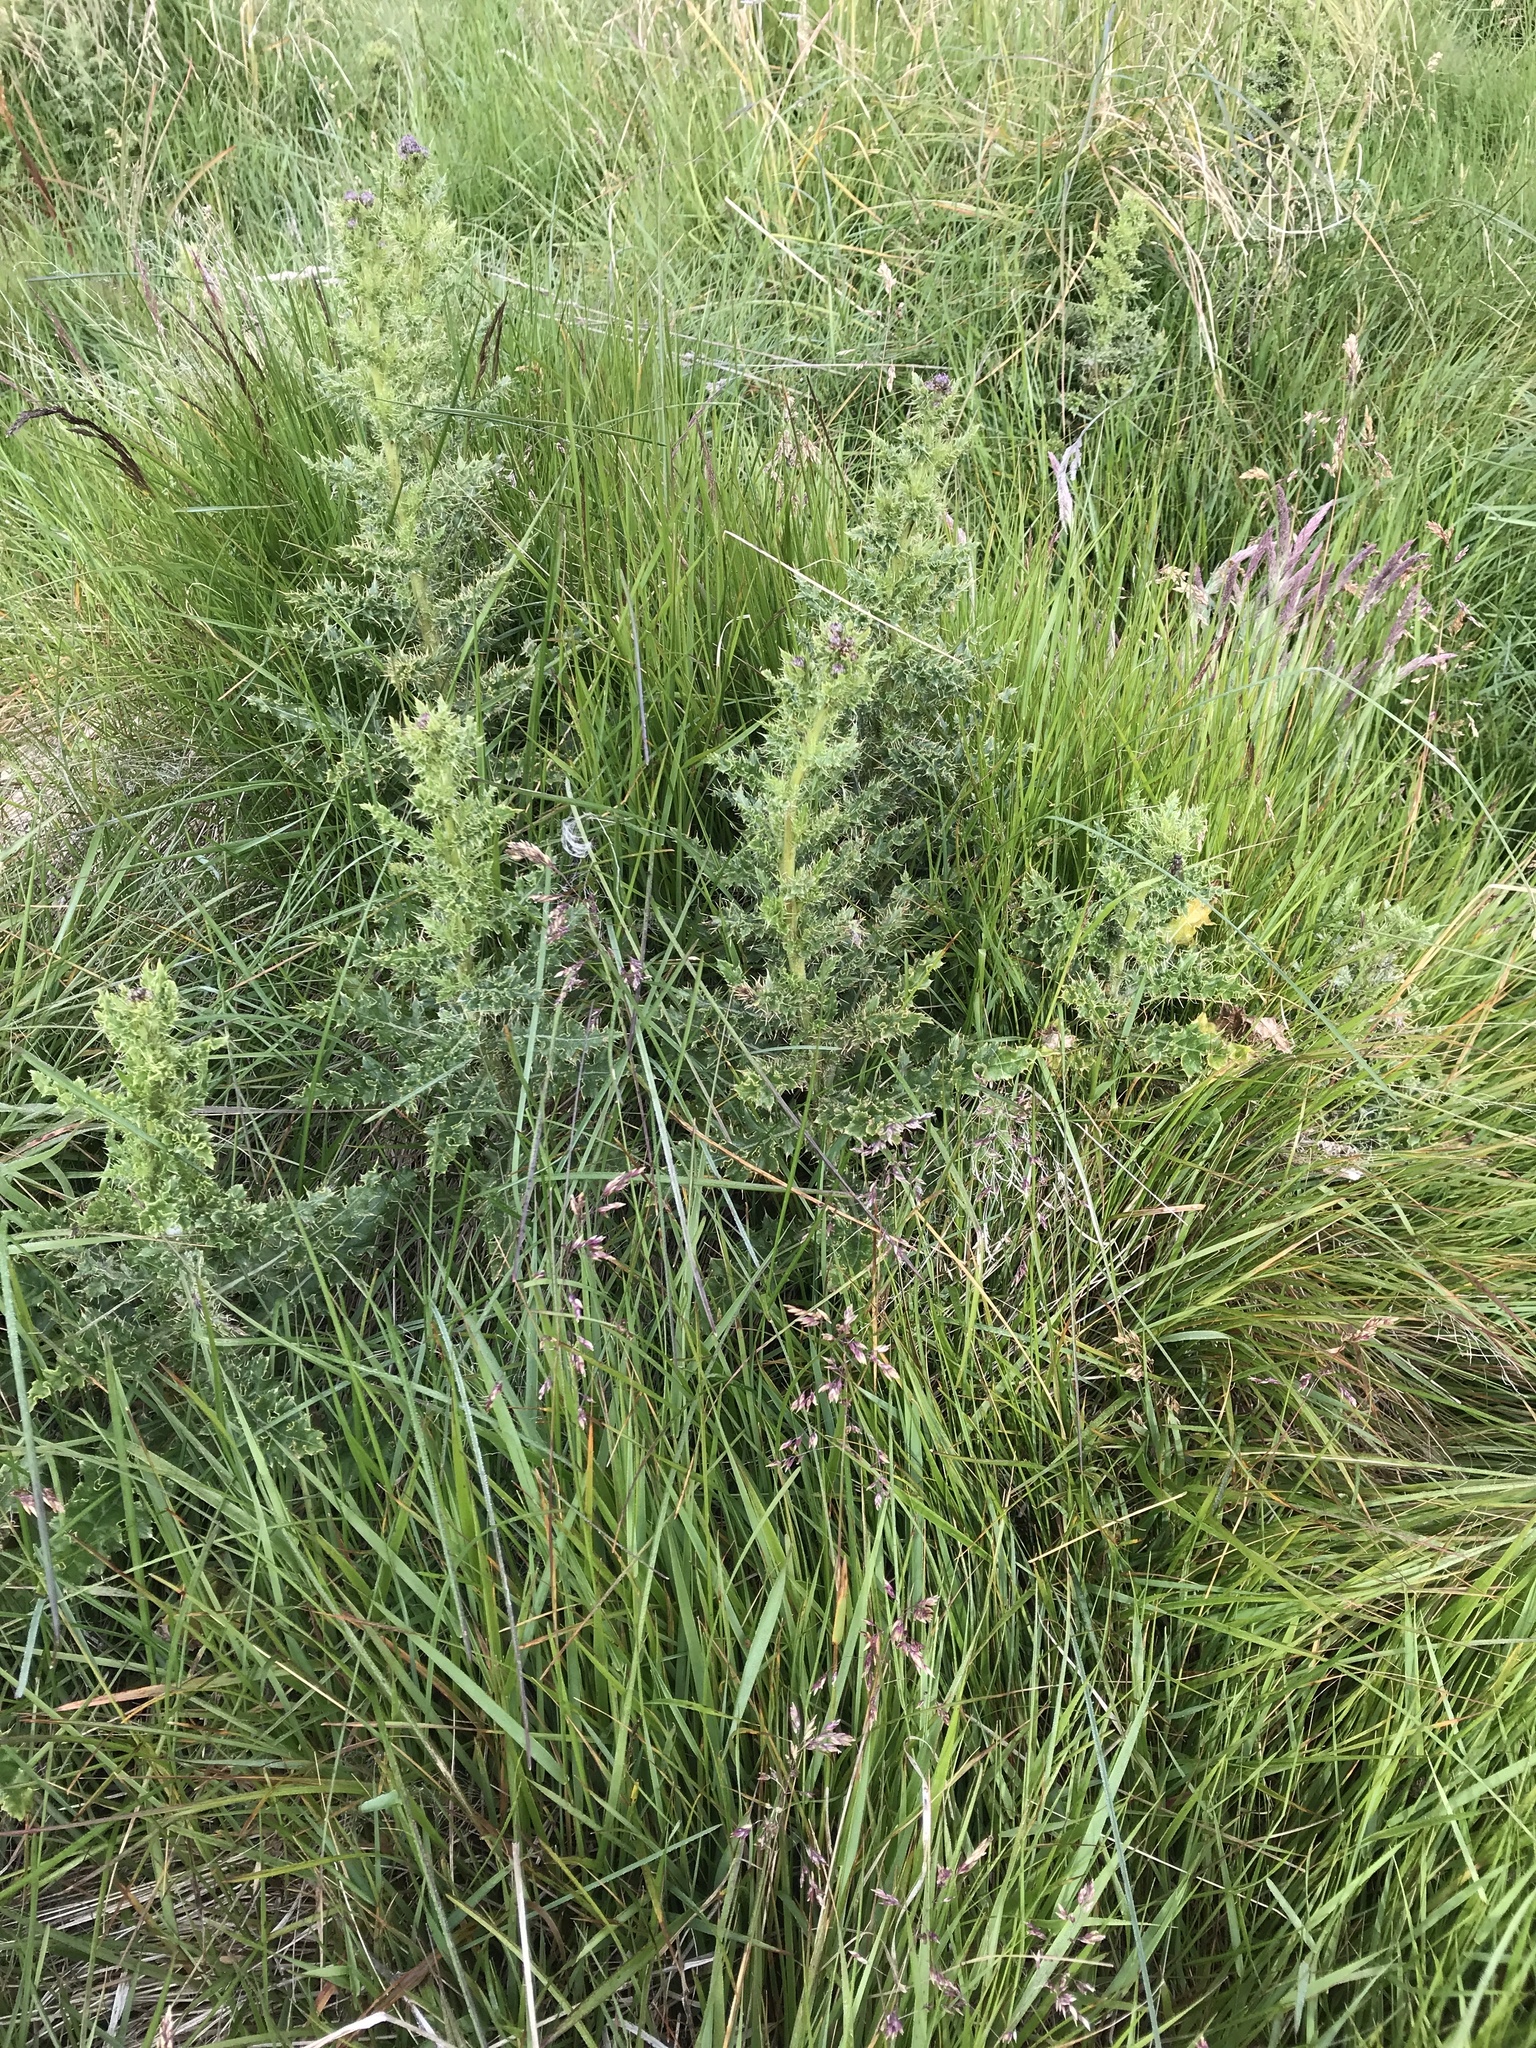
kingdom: Plantae
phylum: Tracheophyta
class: Magnoliopsida
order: Asterales
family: Asteraceae
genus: Cirsium
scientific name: Cirsium arvense
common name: Creeping thistle
